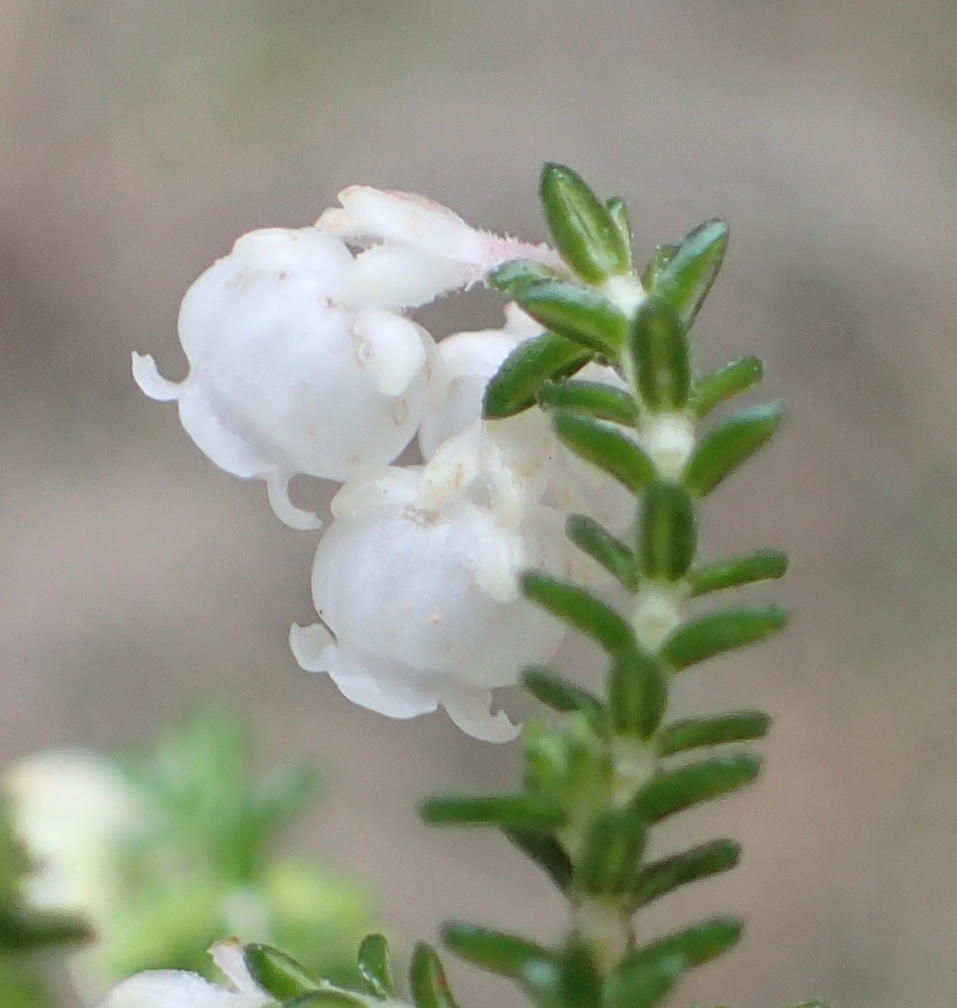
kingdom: Plantae
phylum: Tracheophyta
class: Magnoliopsida
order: Ericales
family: Ericaceae
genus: Erica
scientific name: Erica formosa
